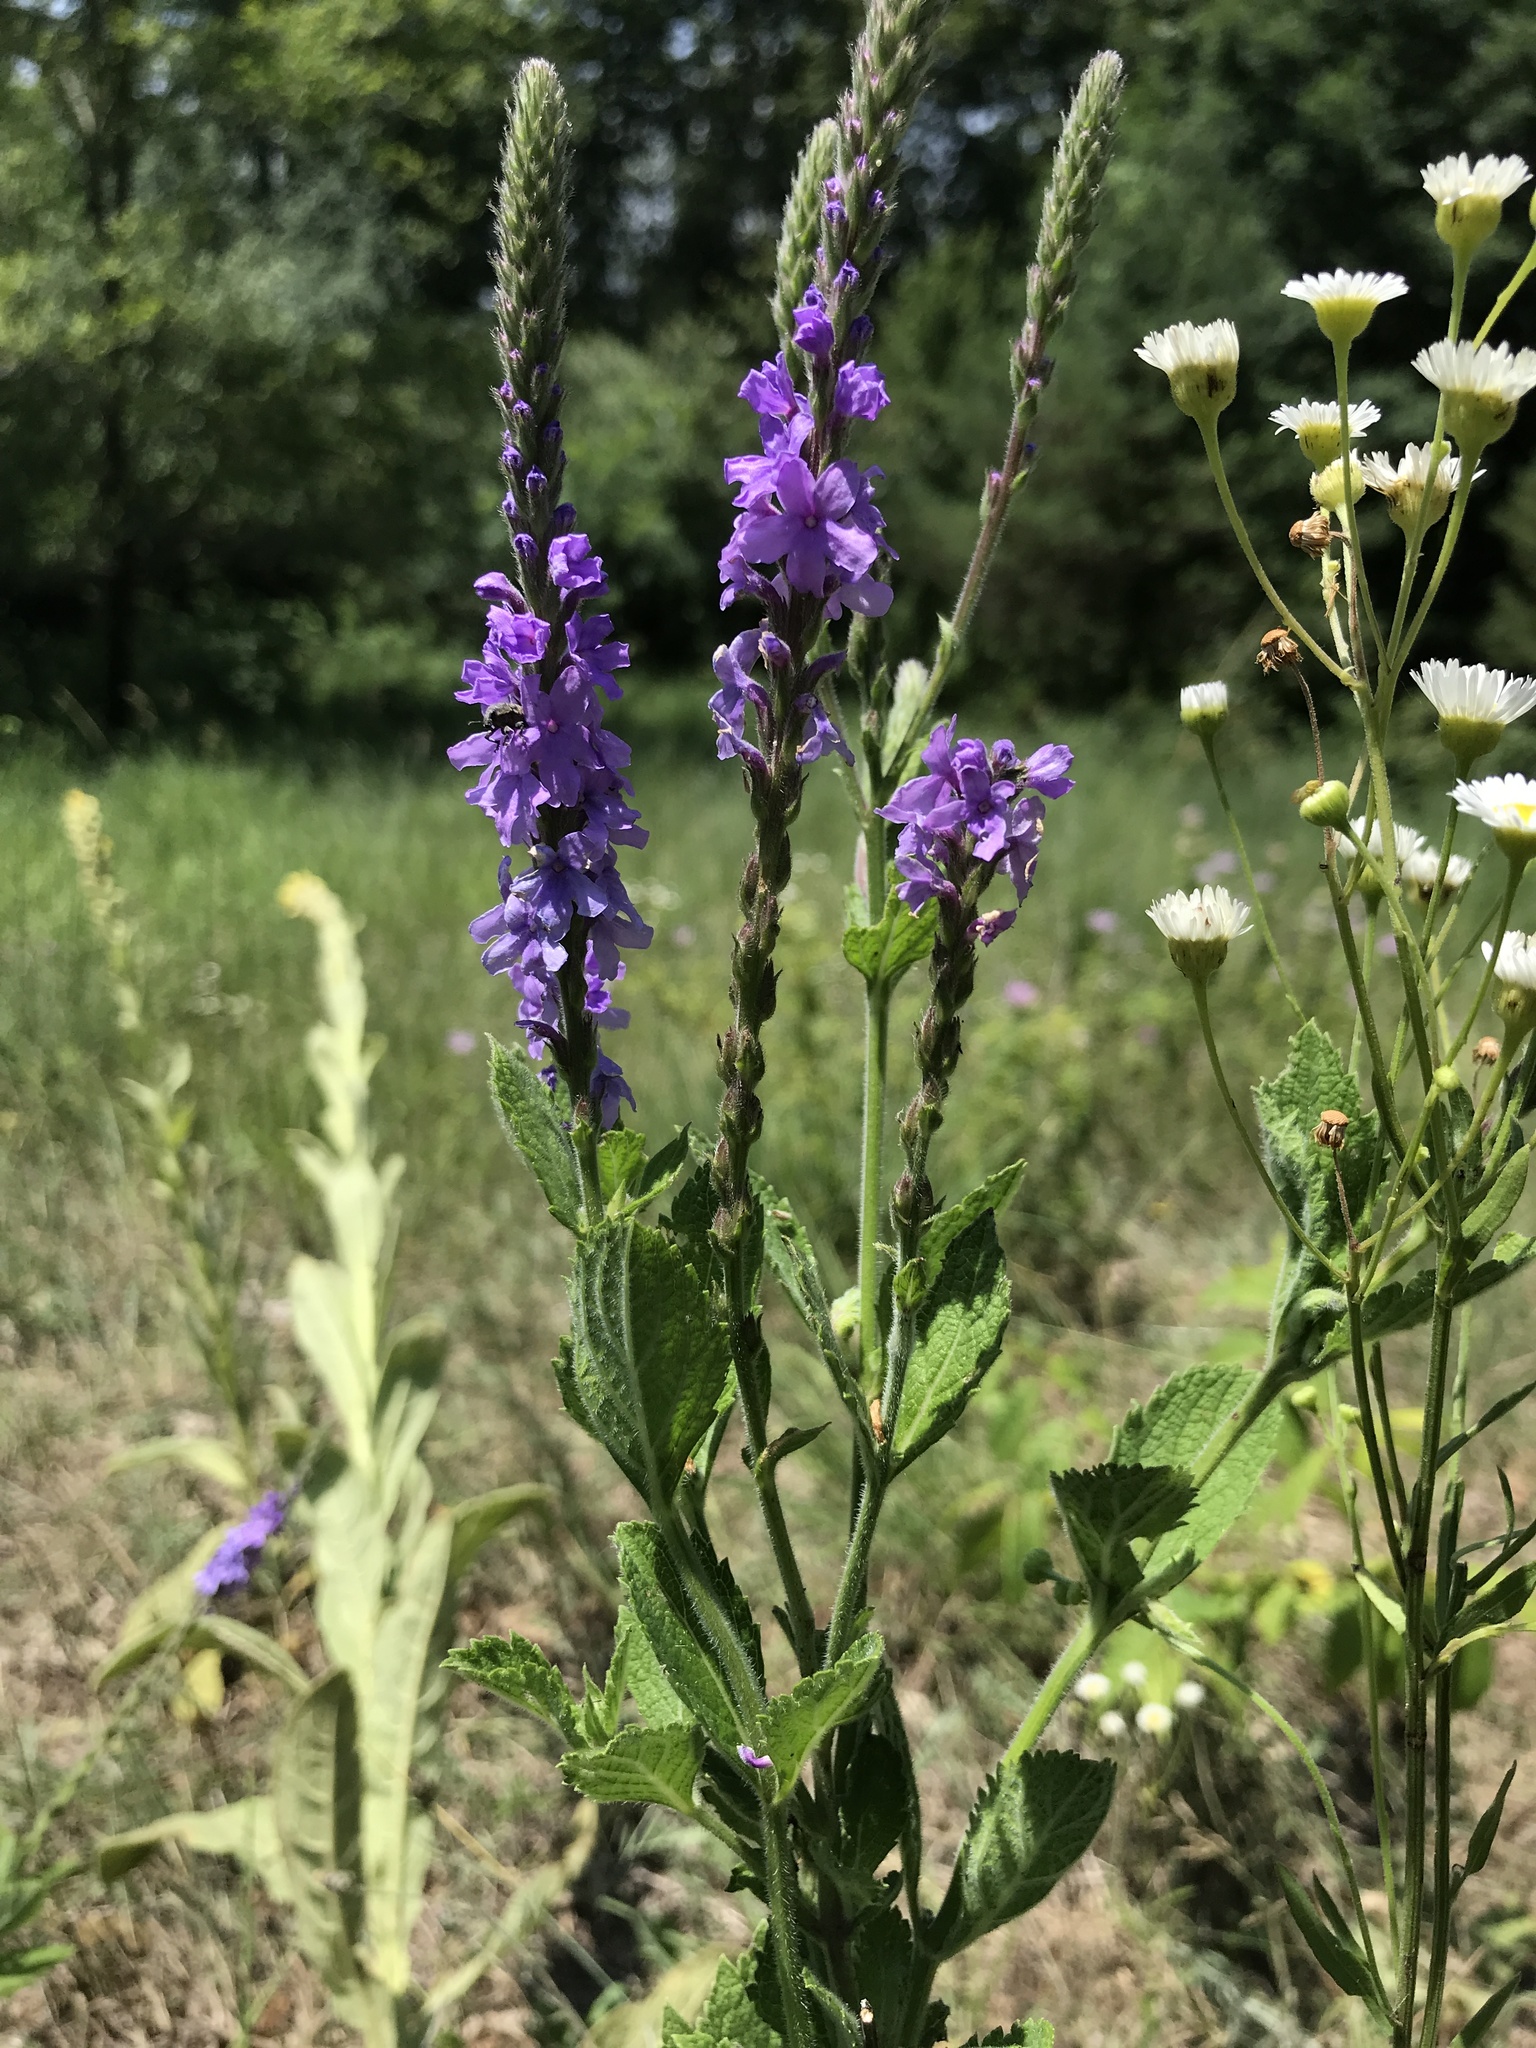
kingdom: Plantae
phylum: Tracheophyta
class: Magnoliopsida
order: Lamiales
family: Verbenaceae
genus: Verbena
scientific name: Verbena stricta
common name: Hoary vervain
